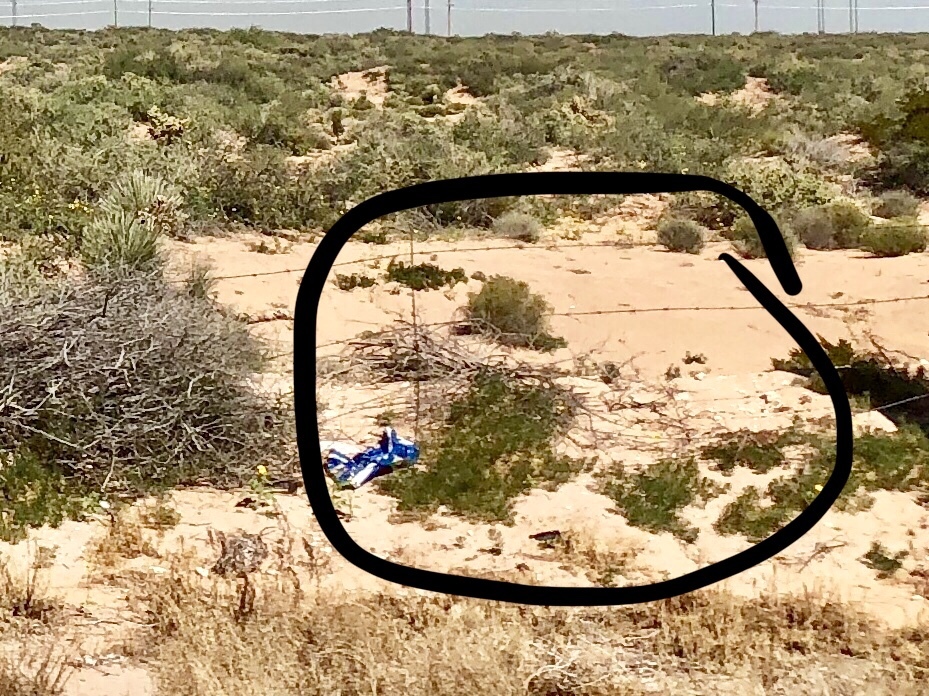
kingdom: Plantae
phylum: Tracheophyta
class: Magnoliopsida
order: Zygophyllales
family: Zygophyllaceae
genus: Larrea
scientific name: Larrea tridentata
